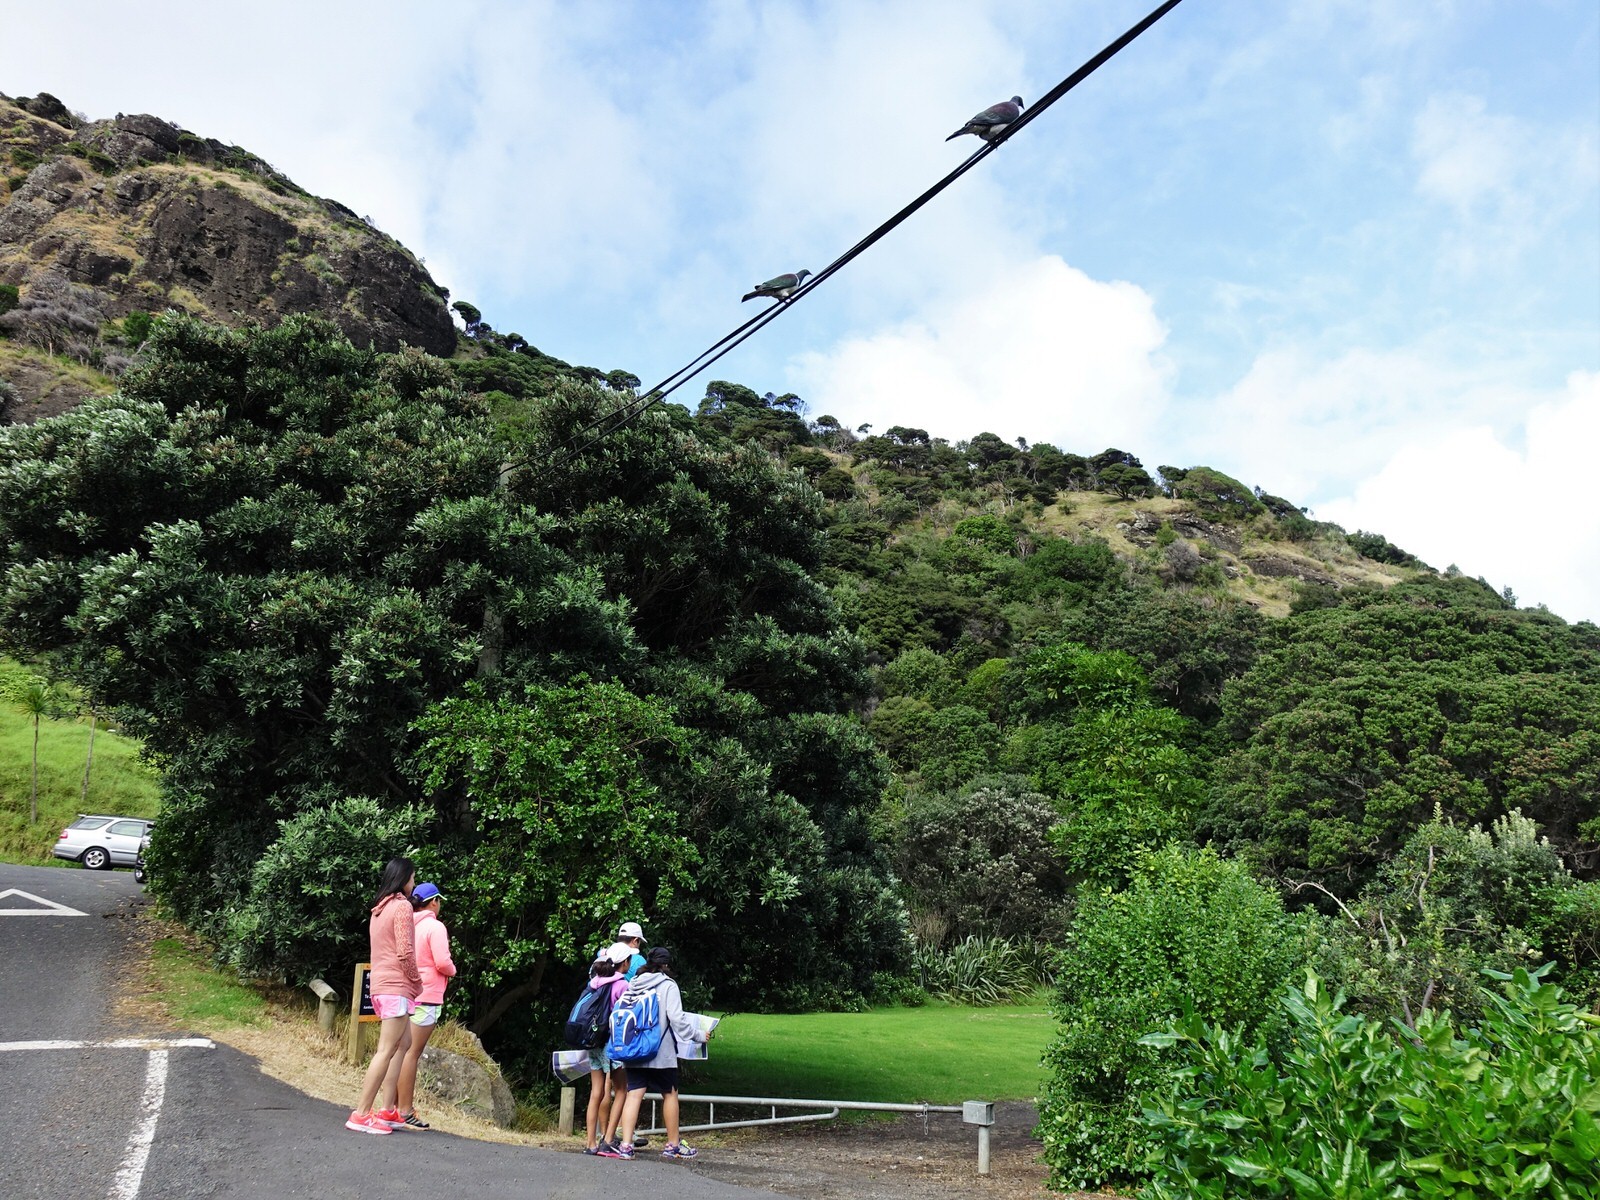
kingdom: Animalia
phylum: Chordata
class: Aves
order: Columbiformes
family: Columbidae
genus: Hemiphaga
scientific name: Hemiphaga novaeseelandiae
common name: New zealand pigeon
